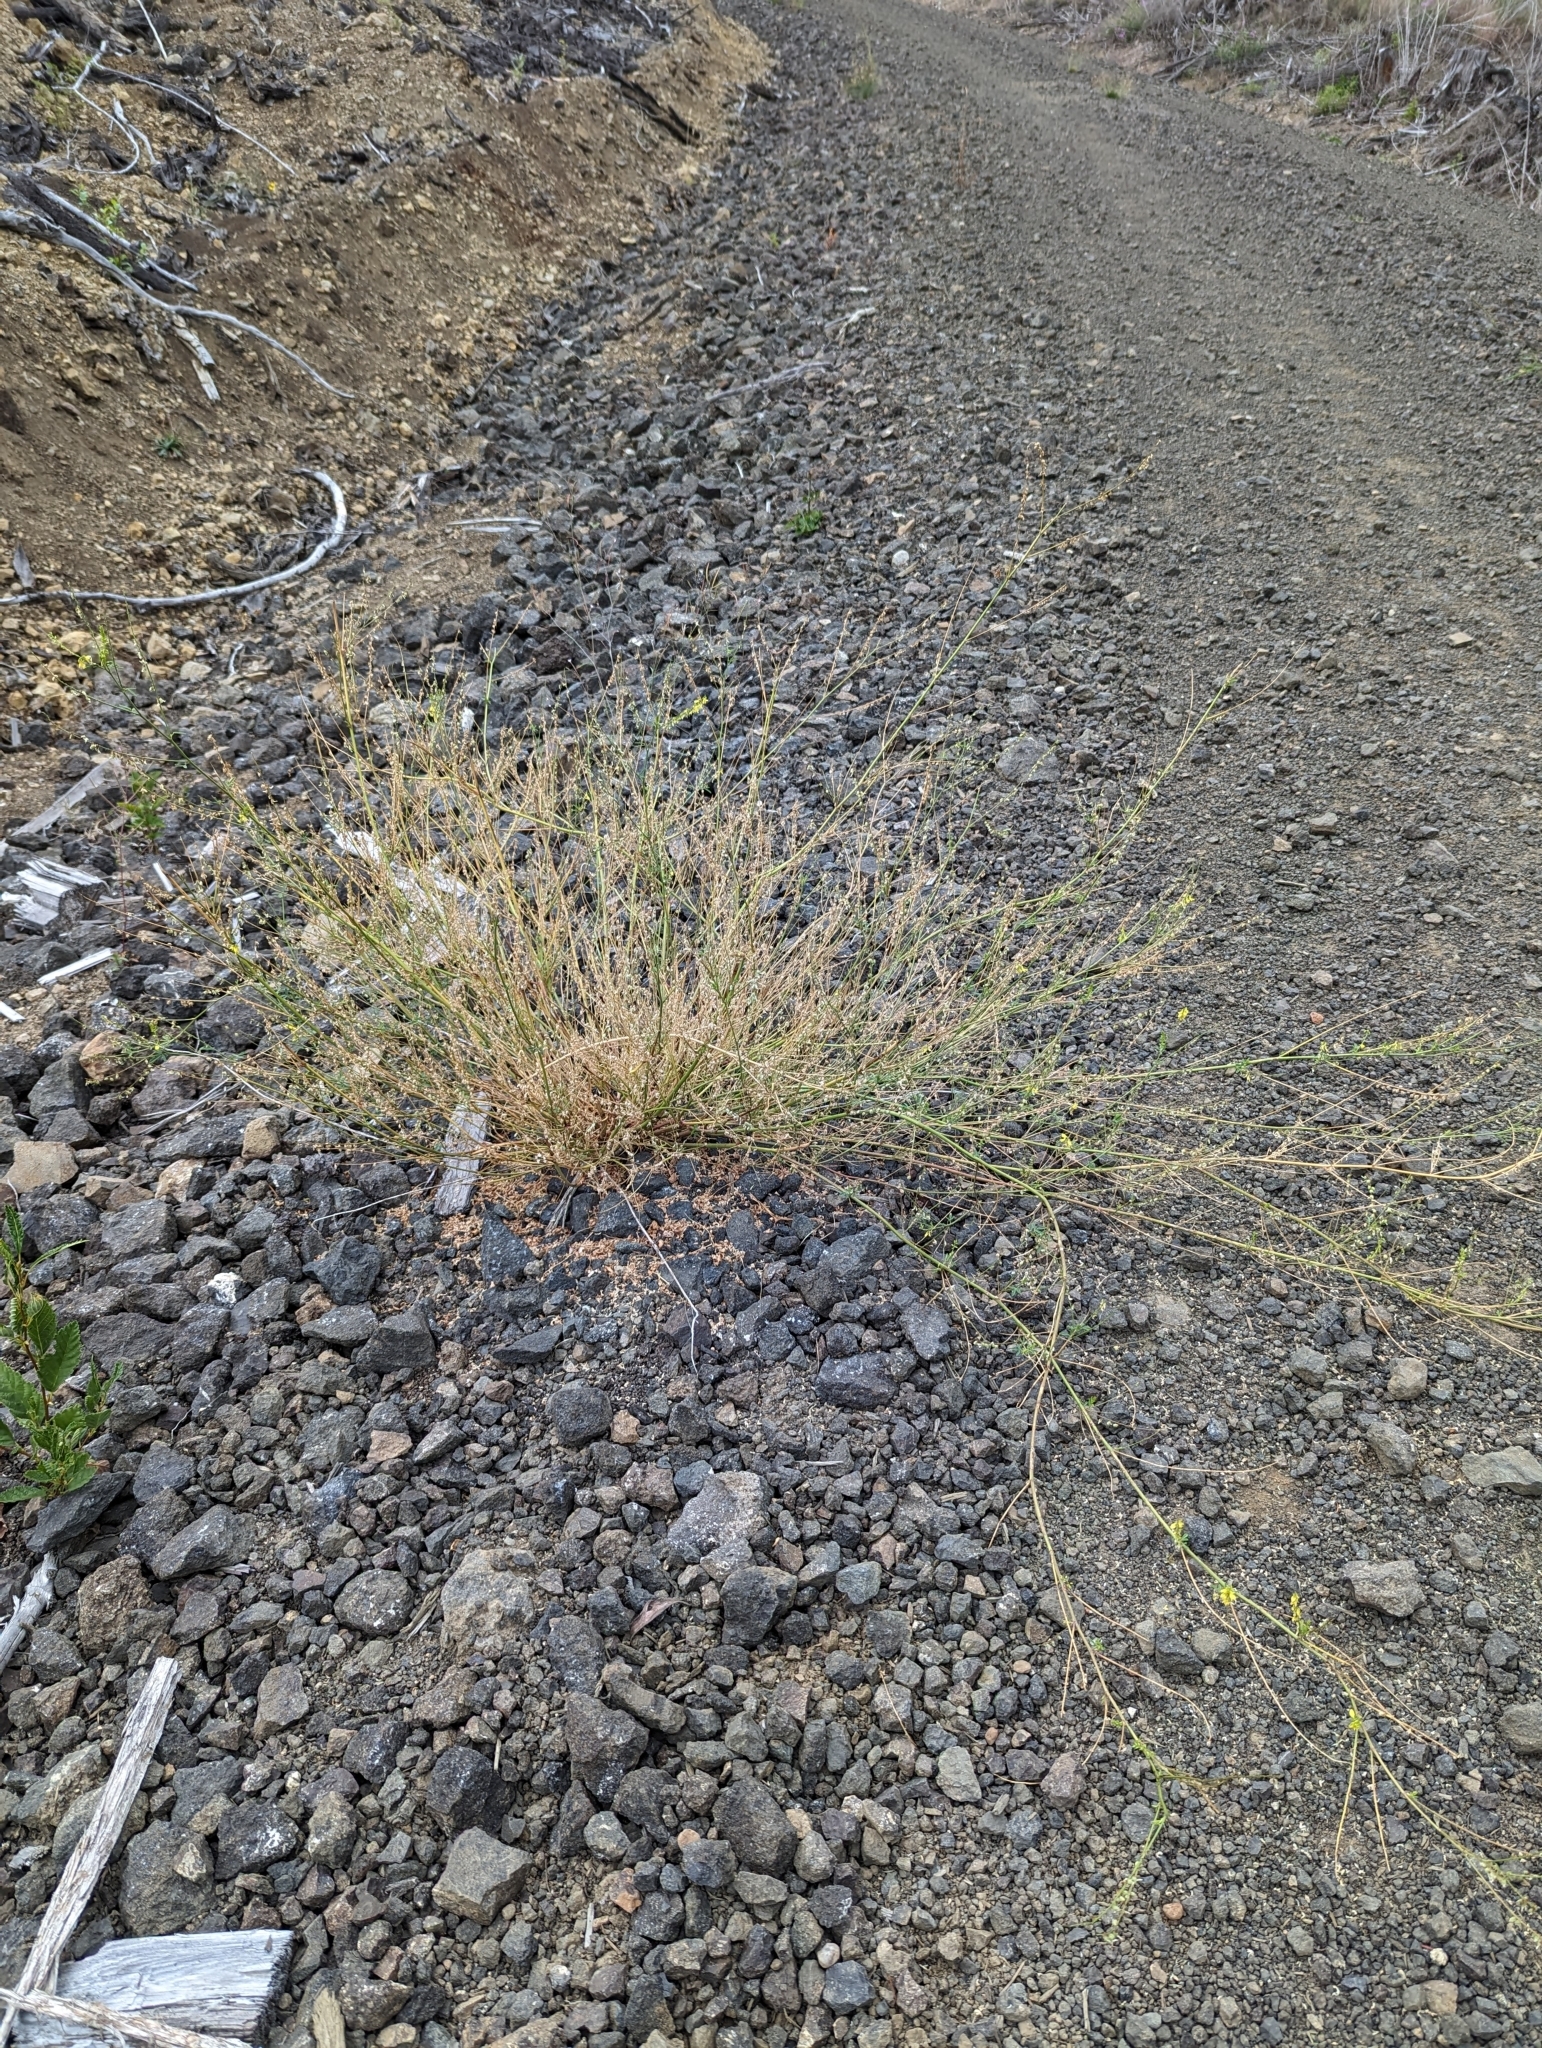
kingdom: Plantae
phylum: Tracheophyta
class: Magnoliopsida
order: Fabales
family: Fabaceae
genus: Melilotus
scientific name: Melilotus officinalis
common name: Sweetclover
